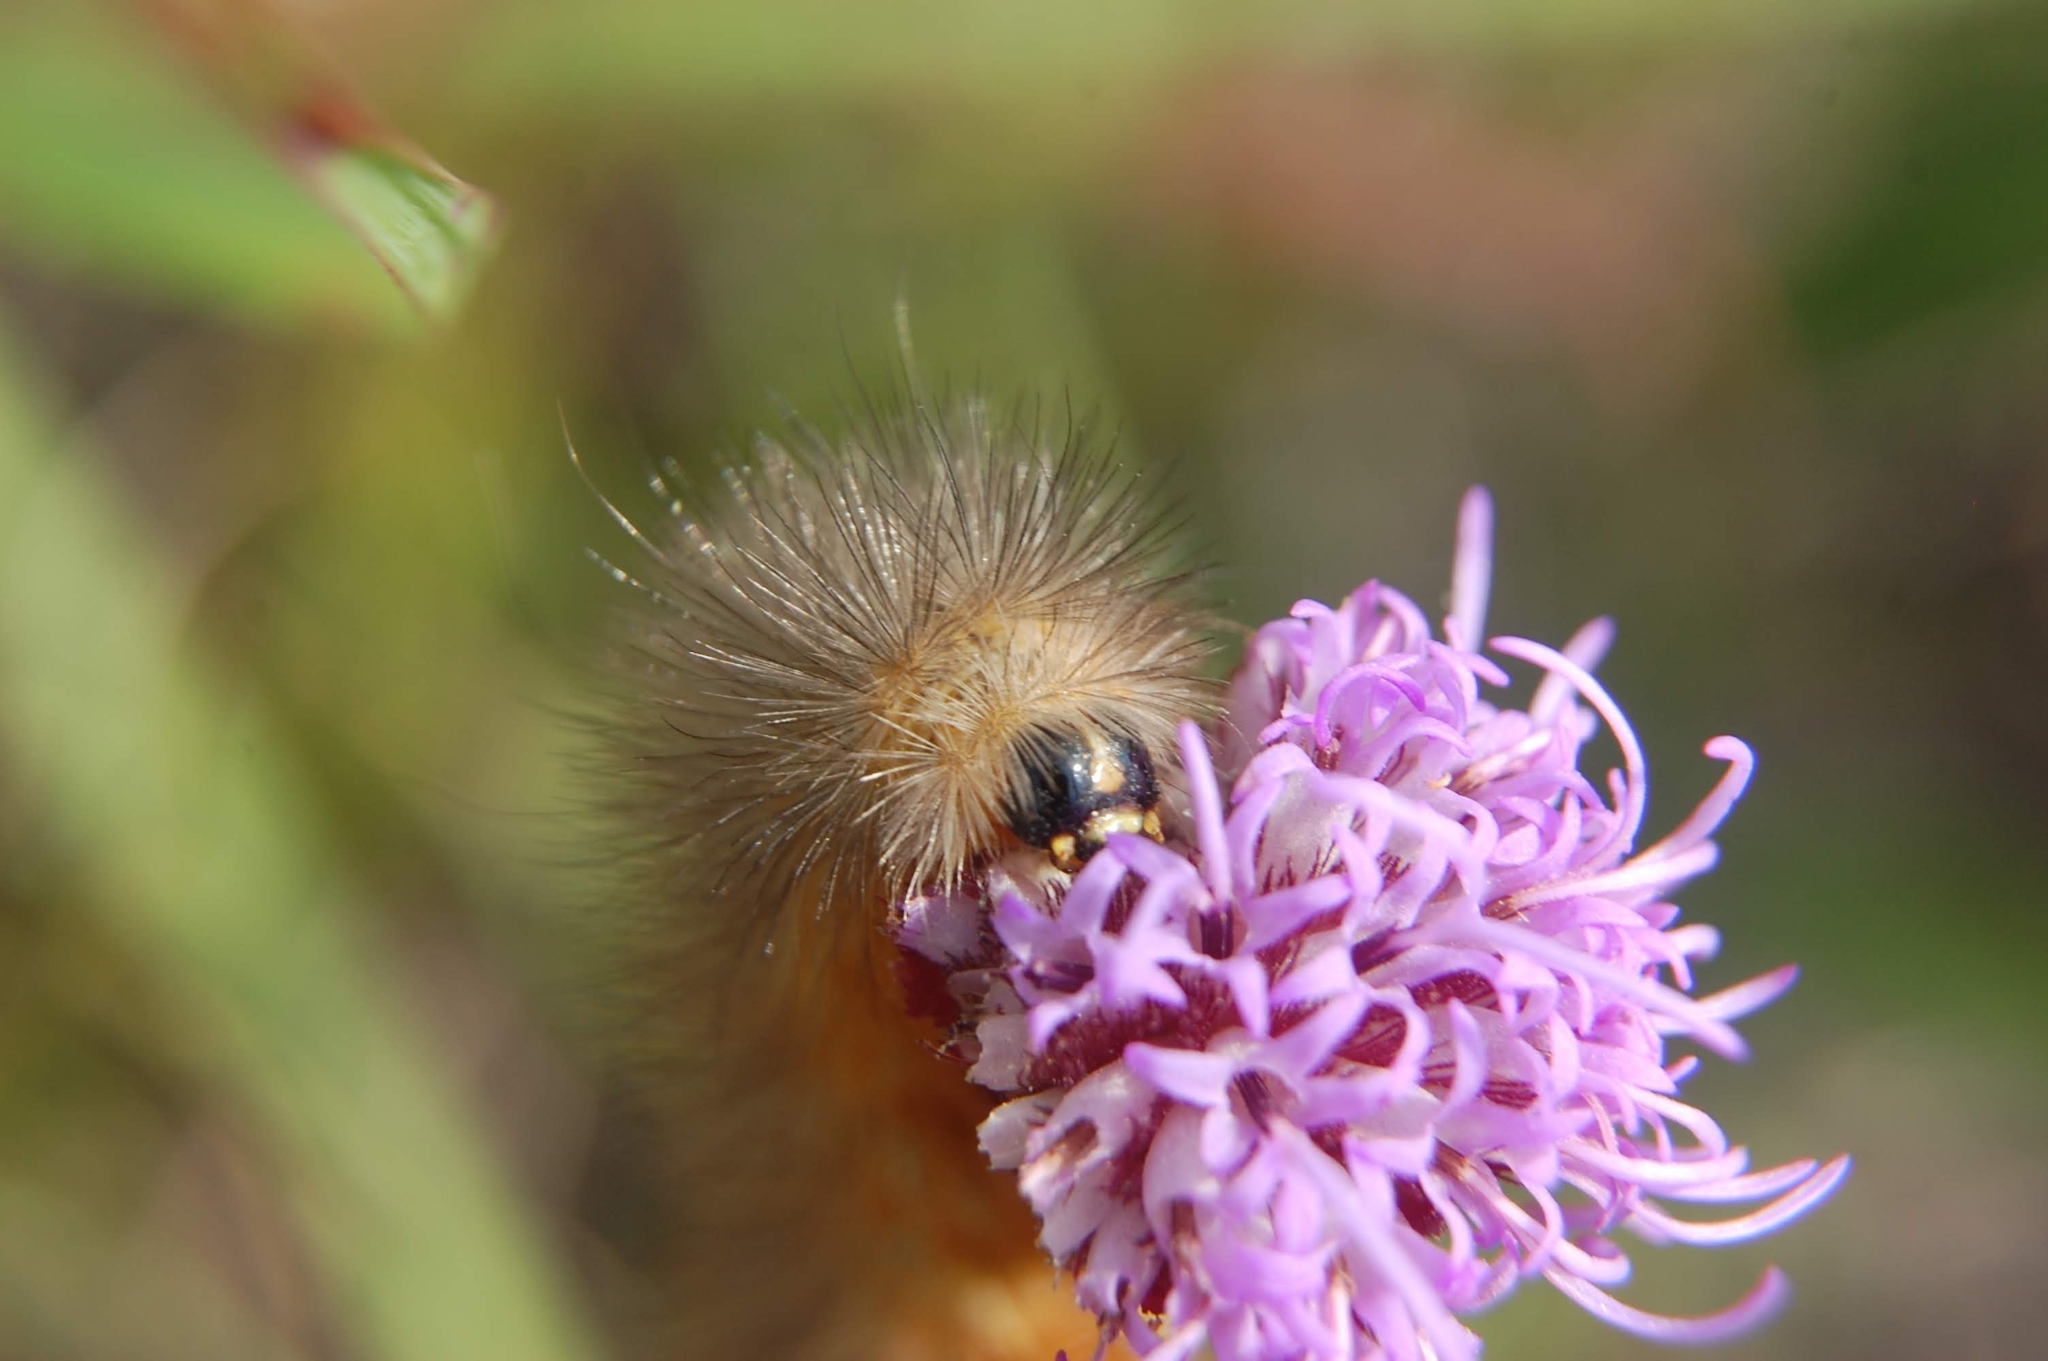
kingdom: Animalia
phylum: Arthropoda
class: Insecta
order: Lepidoptera
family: Erebidae
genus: Estigmene
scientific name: Estigmene acrea
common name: Salt marsh moth
